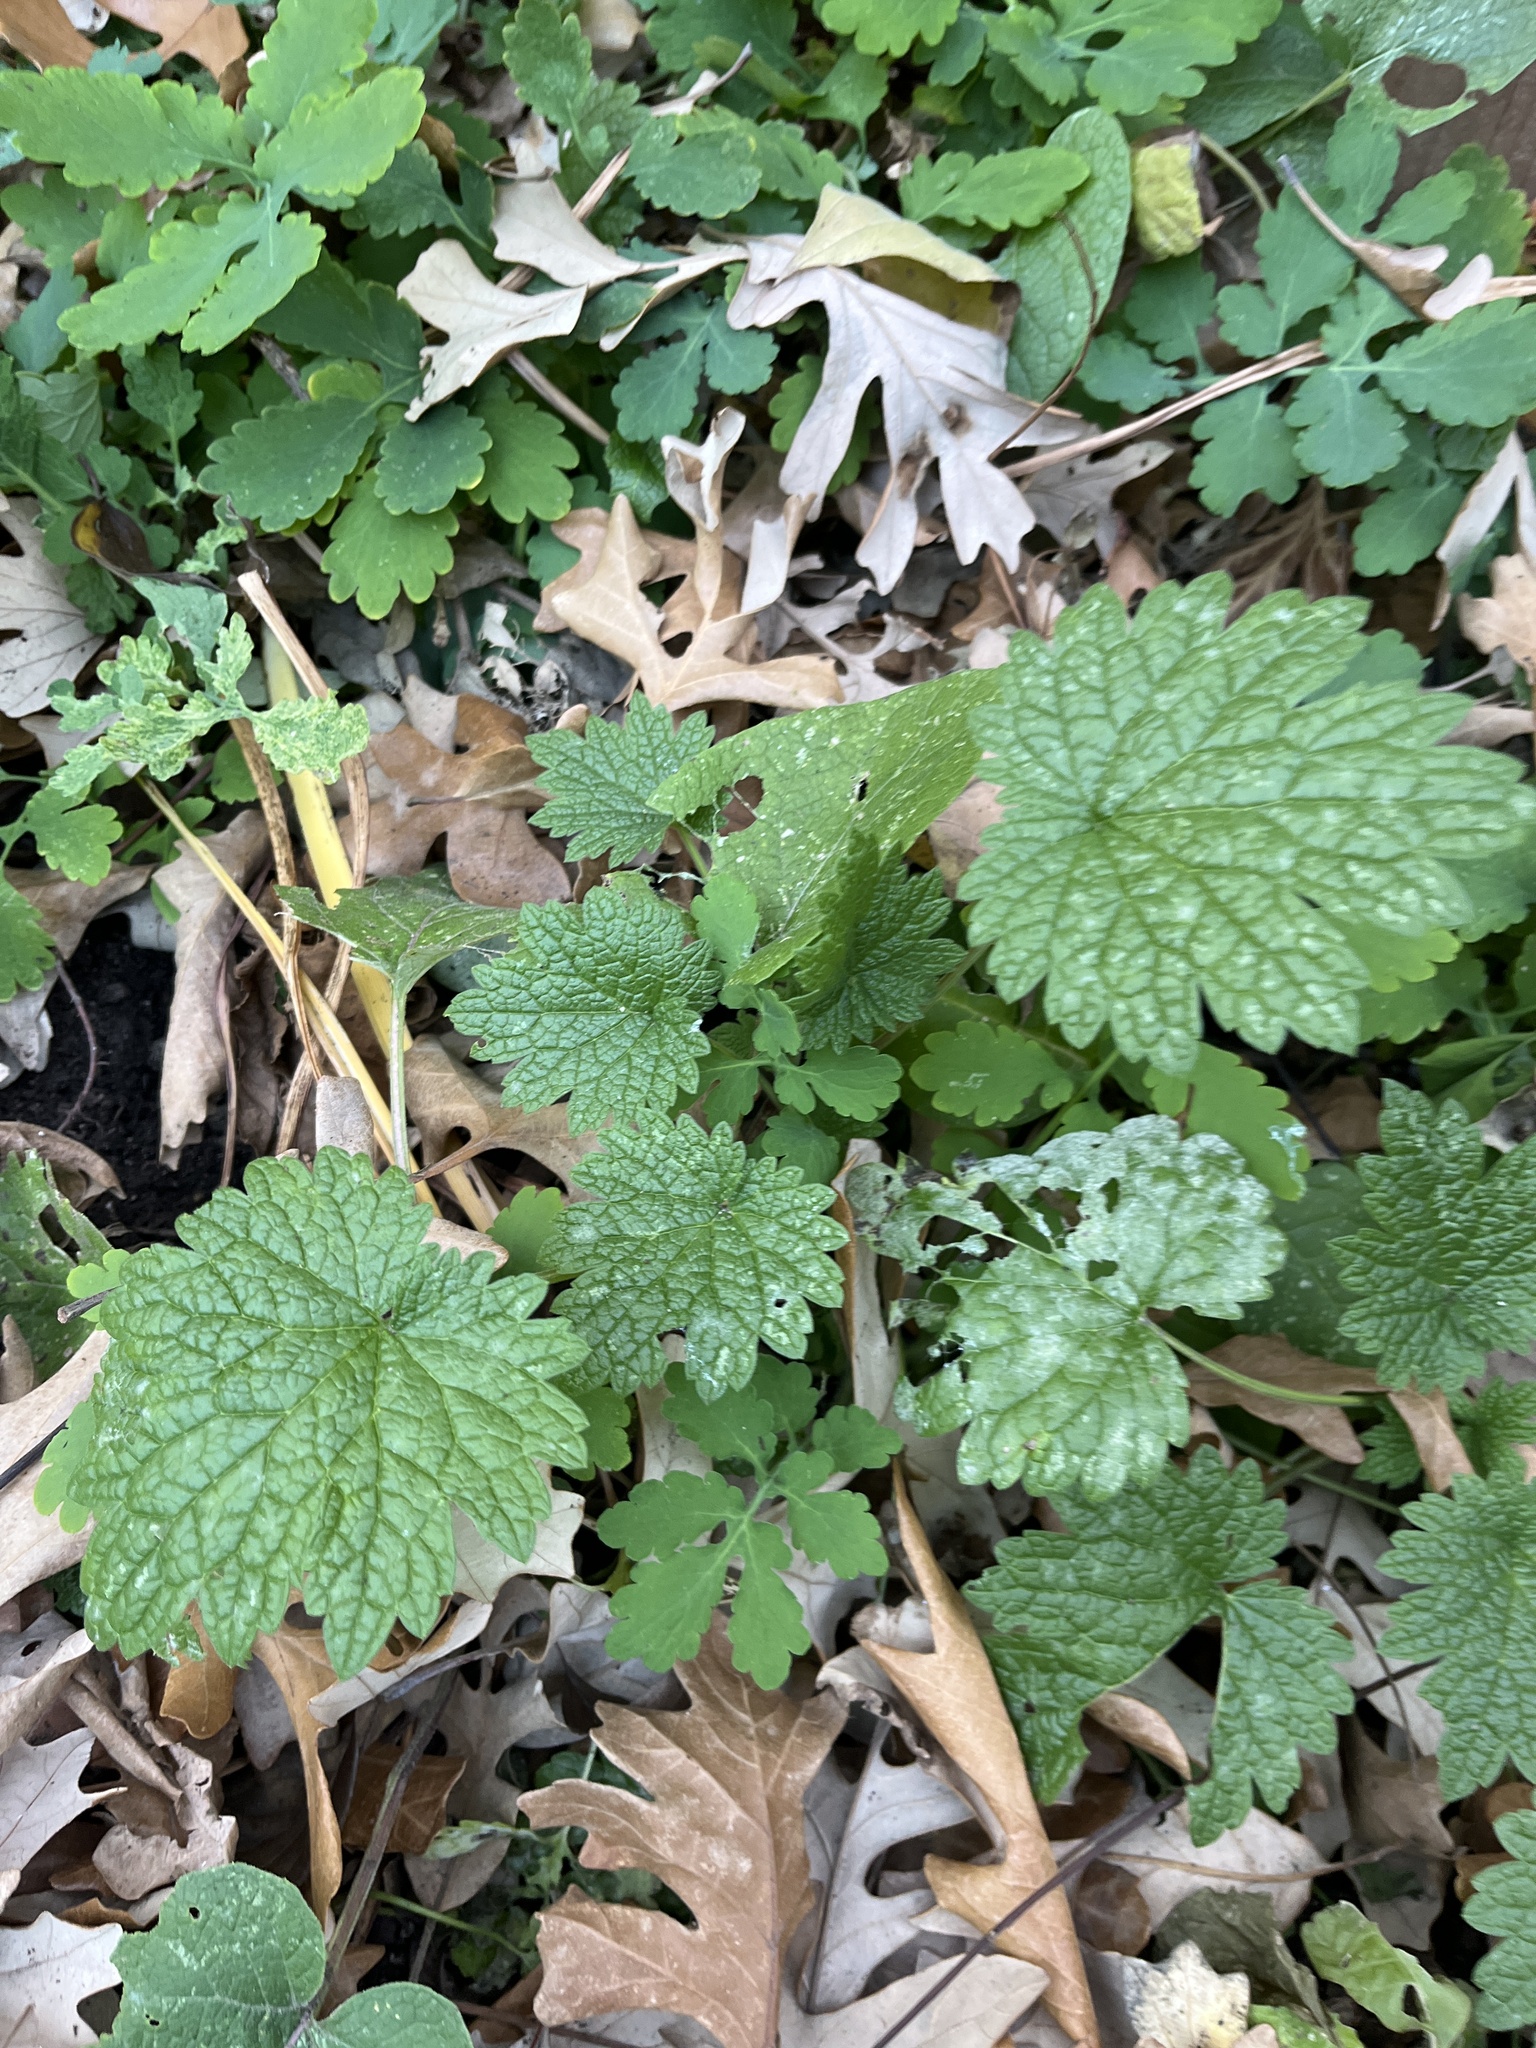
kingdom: Plantae
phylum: Tracheophyta
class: Magnoliopsida
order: Lamiales
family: Lamiaceae
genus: Leonurus
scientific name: Leonurus cardiaca
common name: Motherwort
